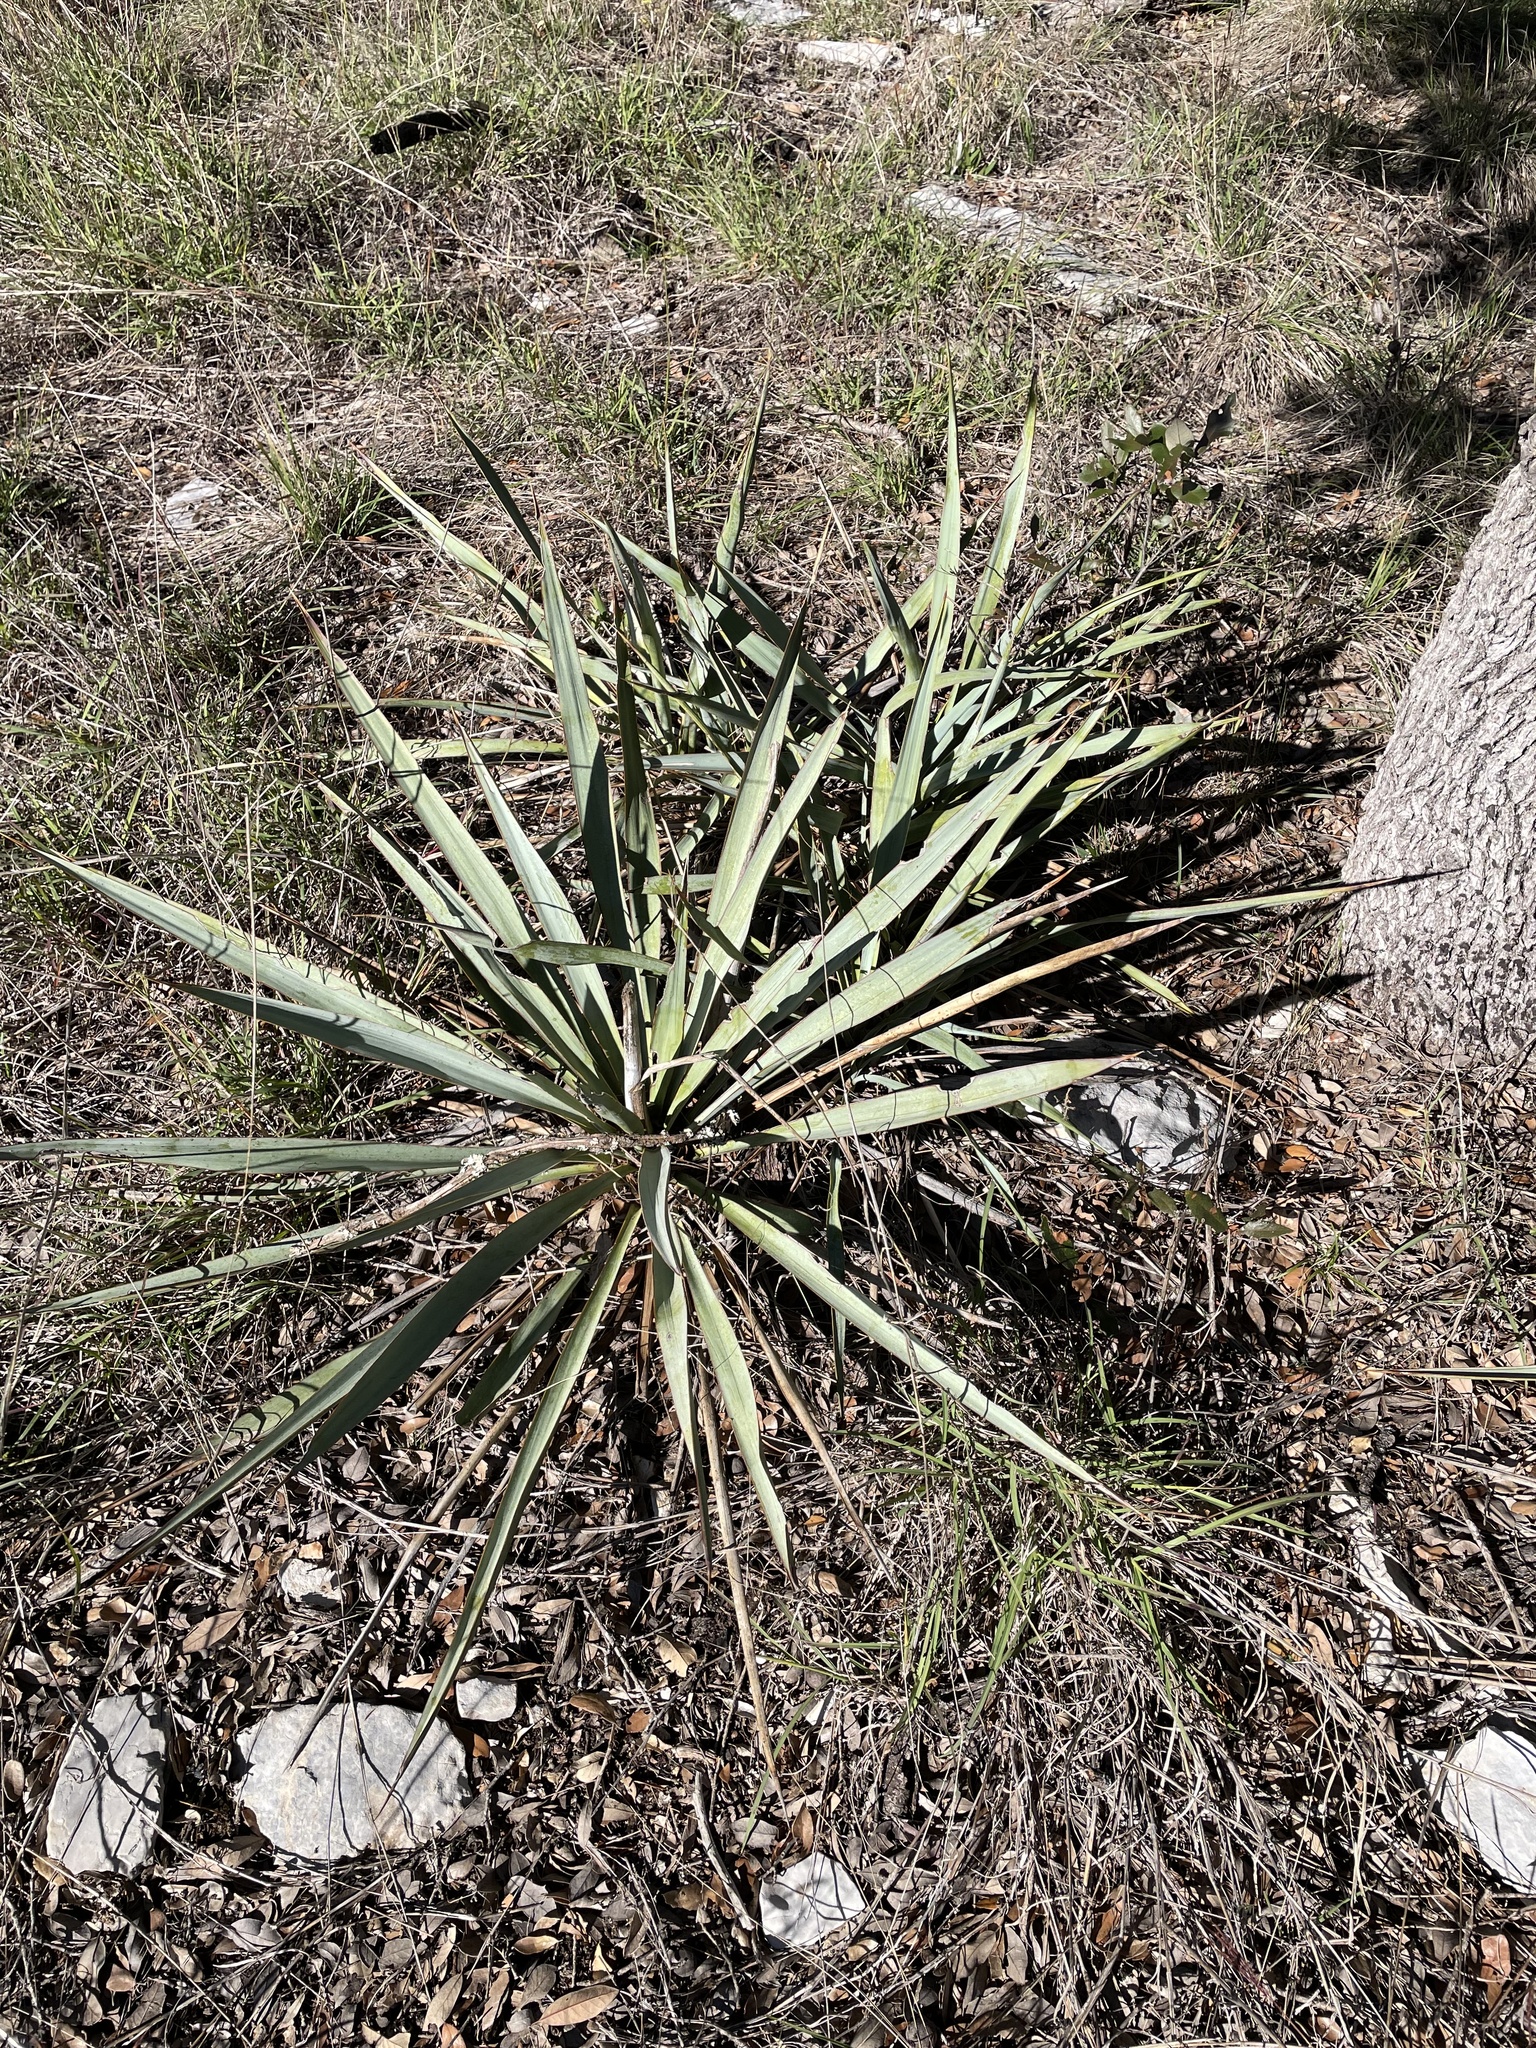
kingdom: Plantae
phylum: Tracheophyta
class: Liliopsida
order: Asparagales
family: Asparagaceae
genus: Yucca
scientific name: Yucca pallida
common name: Pale leaf yucca
